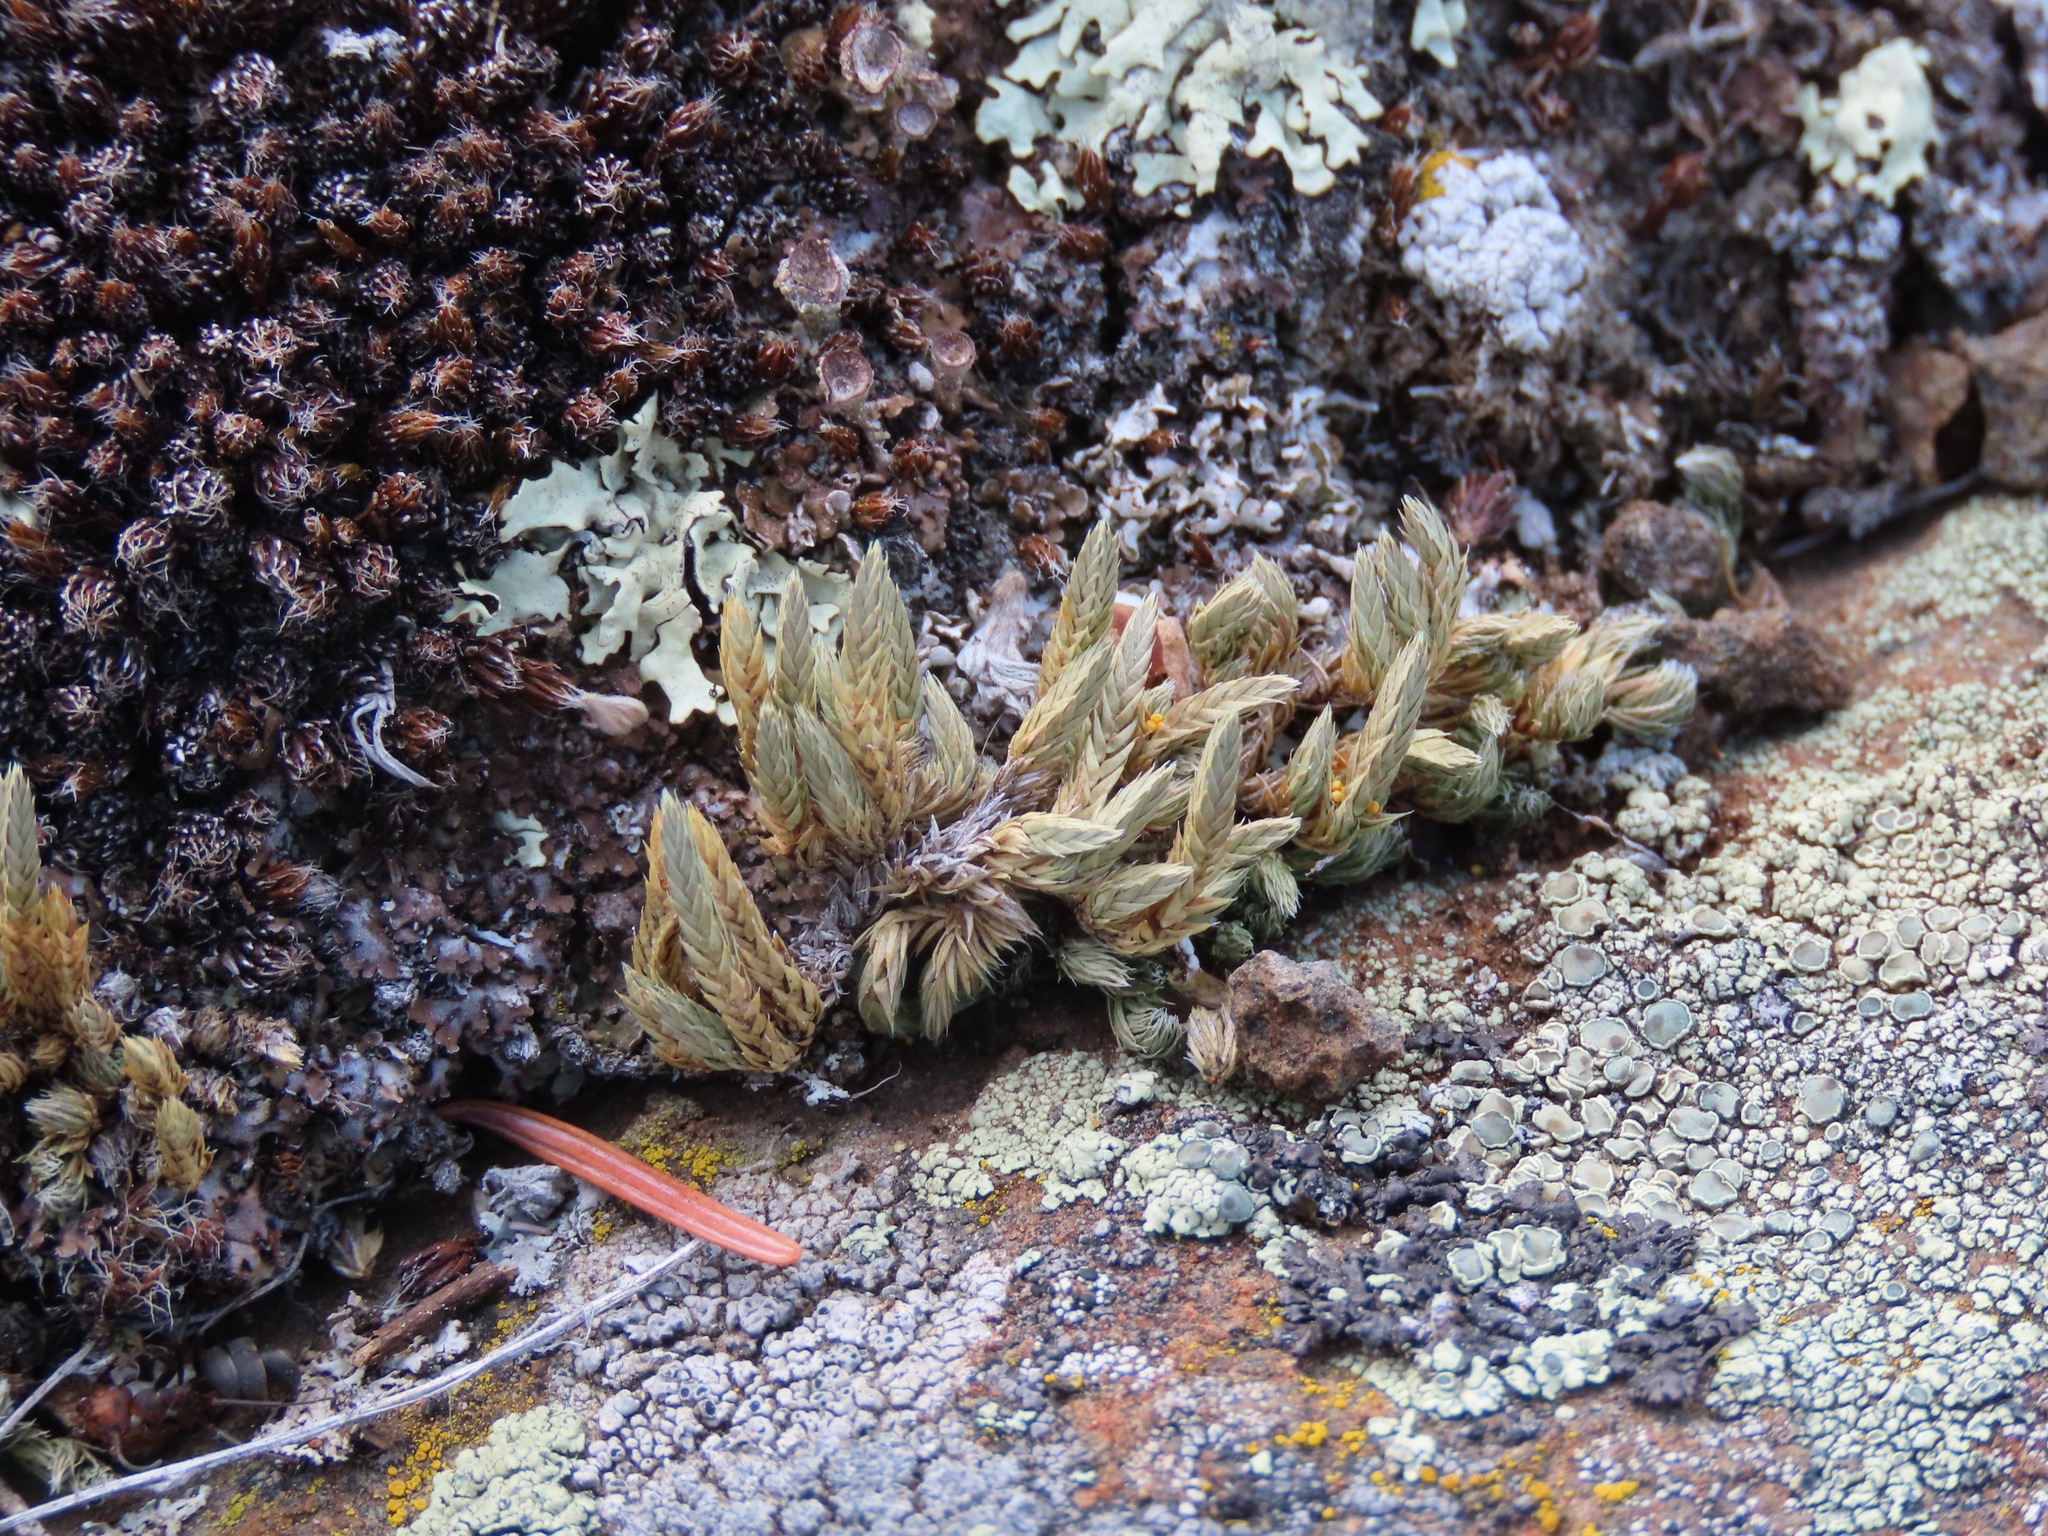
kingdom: Plantae
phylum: Tracheophyta
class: Lycopodiopsida
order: Selaginellales
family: Selaginellaceae
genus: Selaginella
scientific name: Selaginella densa
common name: Mountain spike-moss
